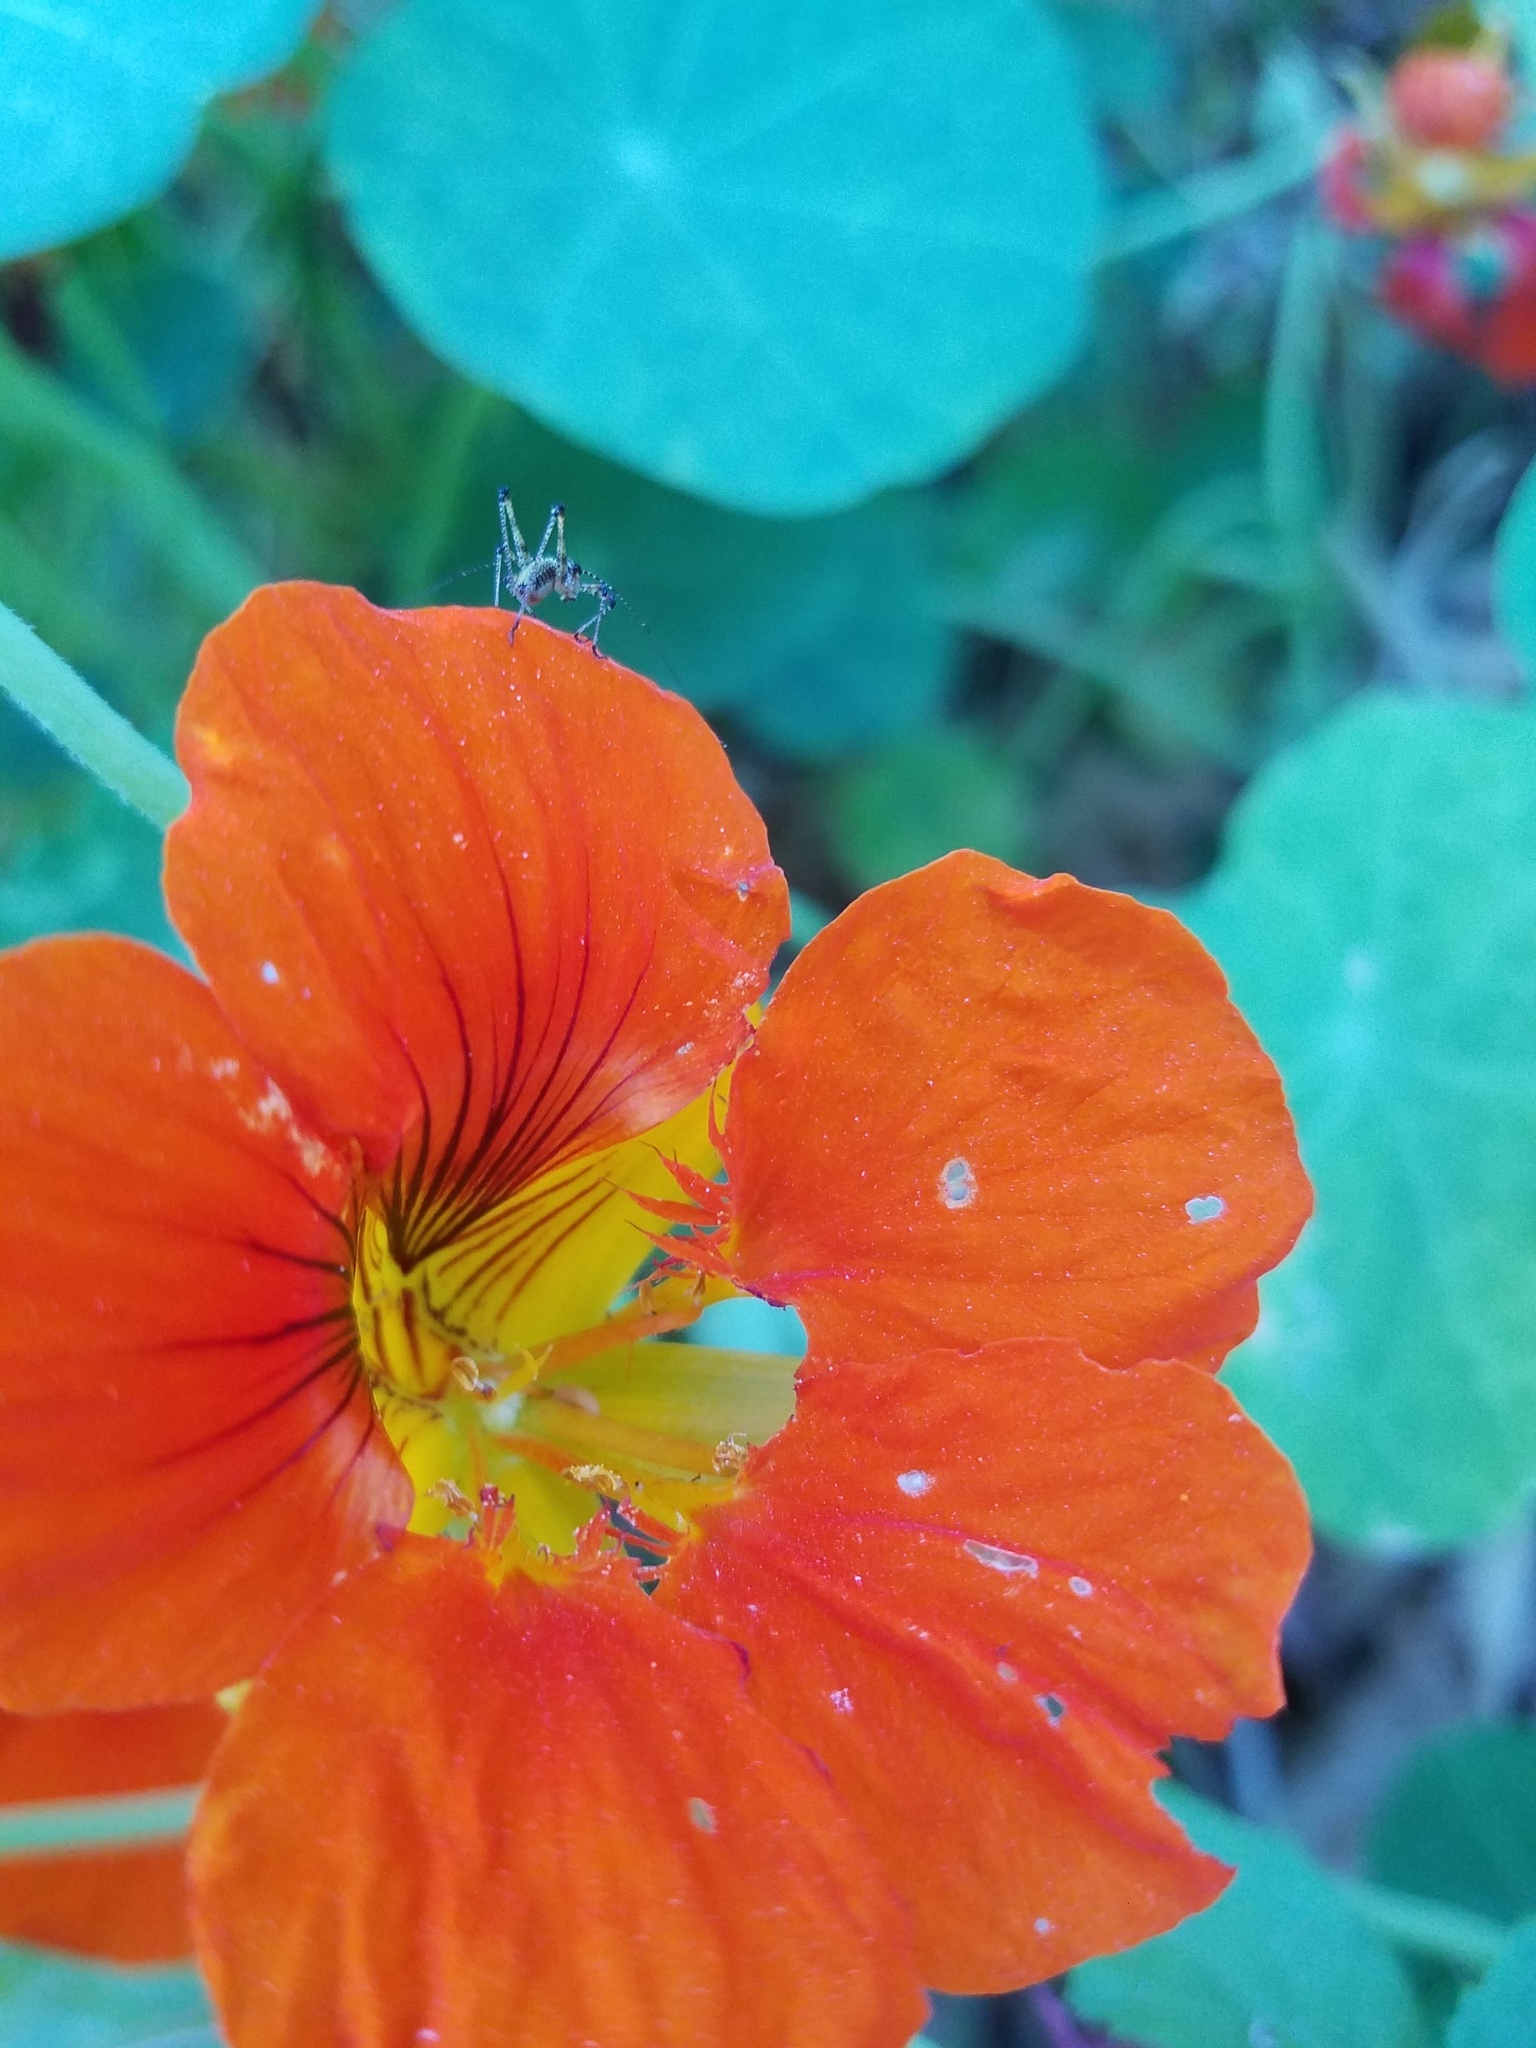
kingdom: Animalia
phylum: Arthropoda
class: Insecta
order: Orthoptera
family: Tettigoniidae
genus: Phaneroptera
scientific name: Phaneroptera nana
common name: Southern sickle bush-cricket
